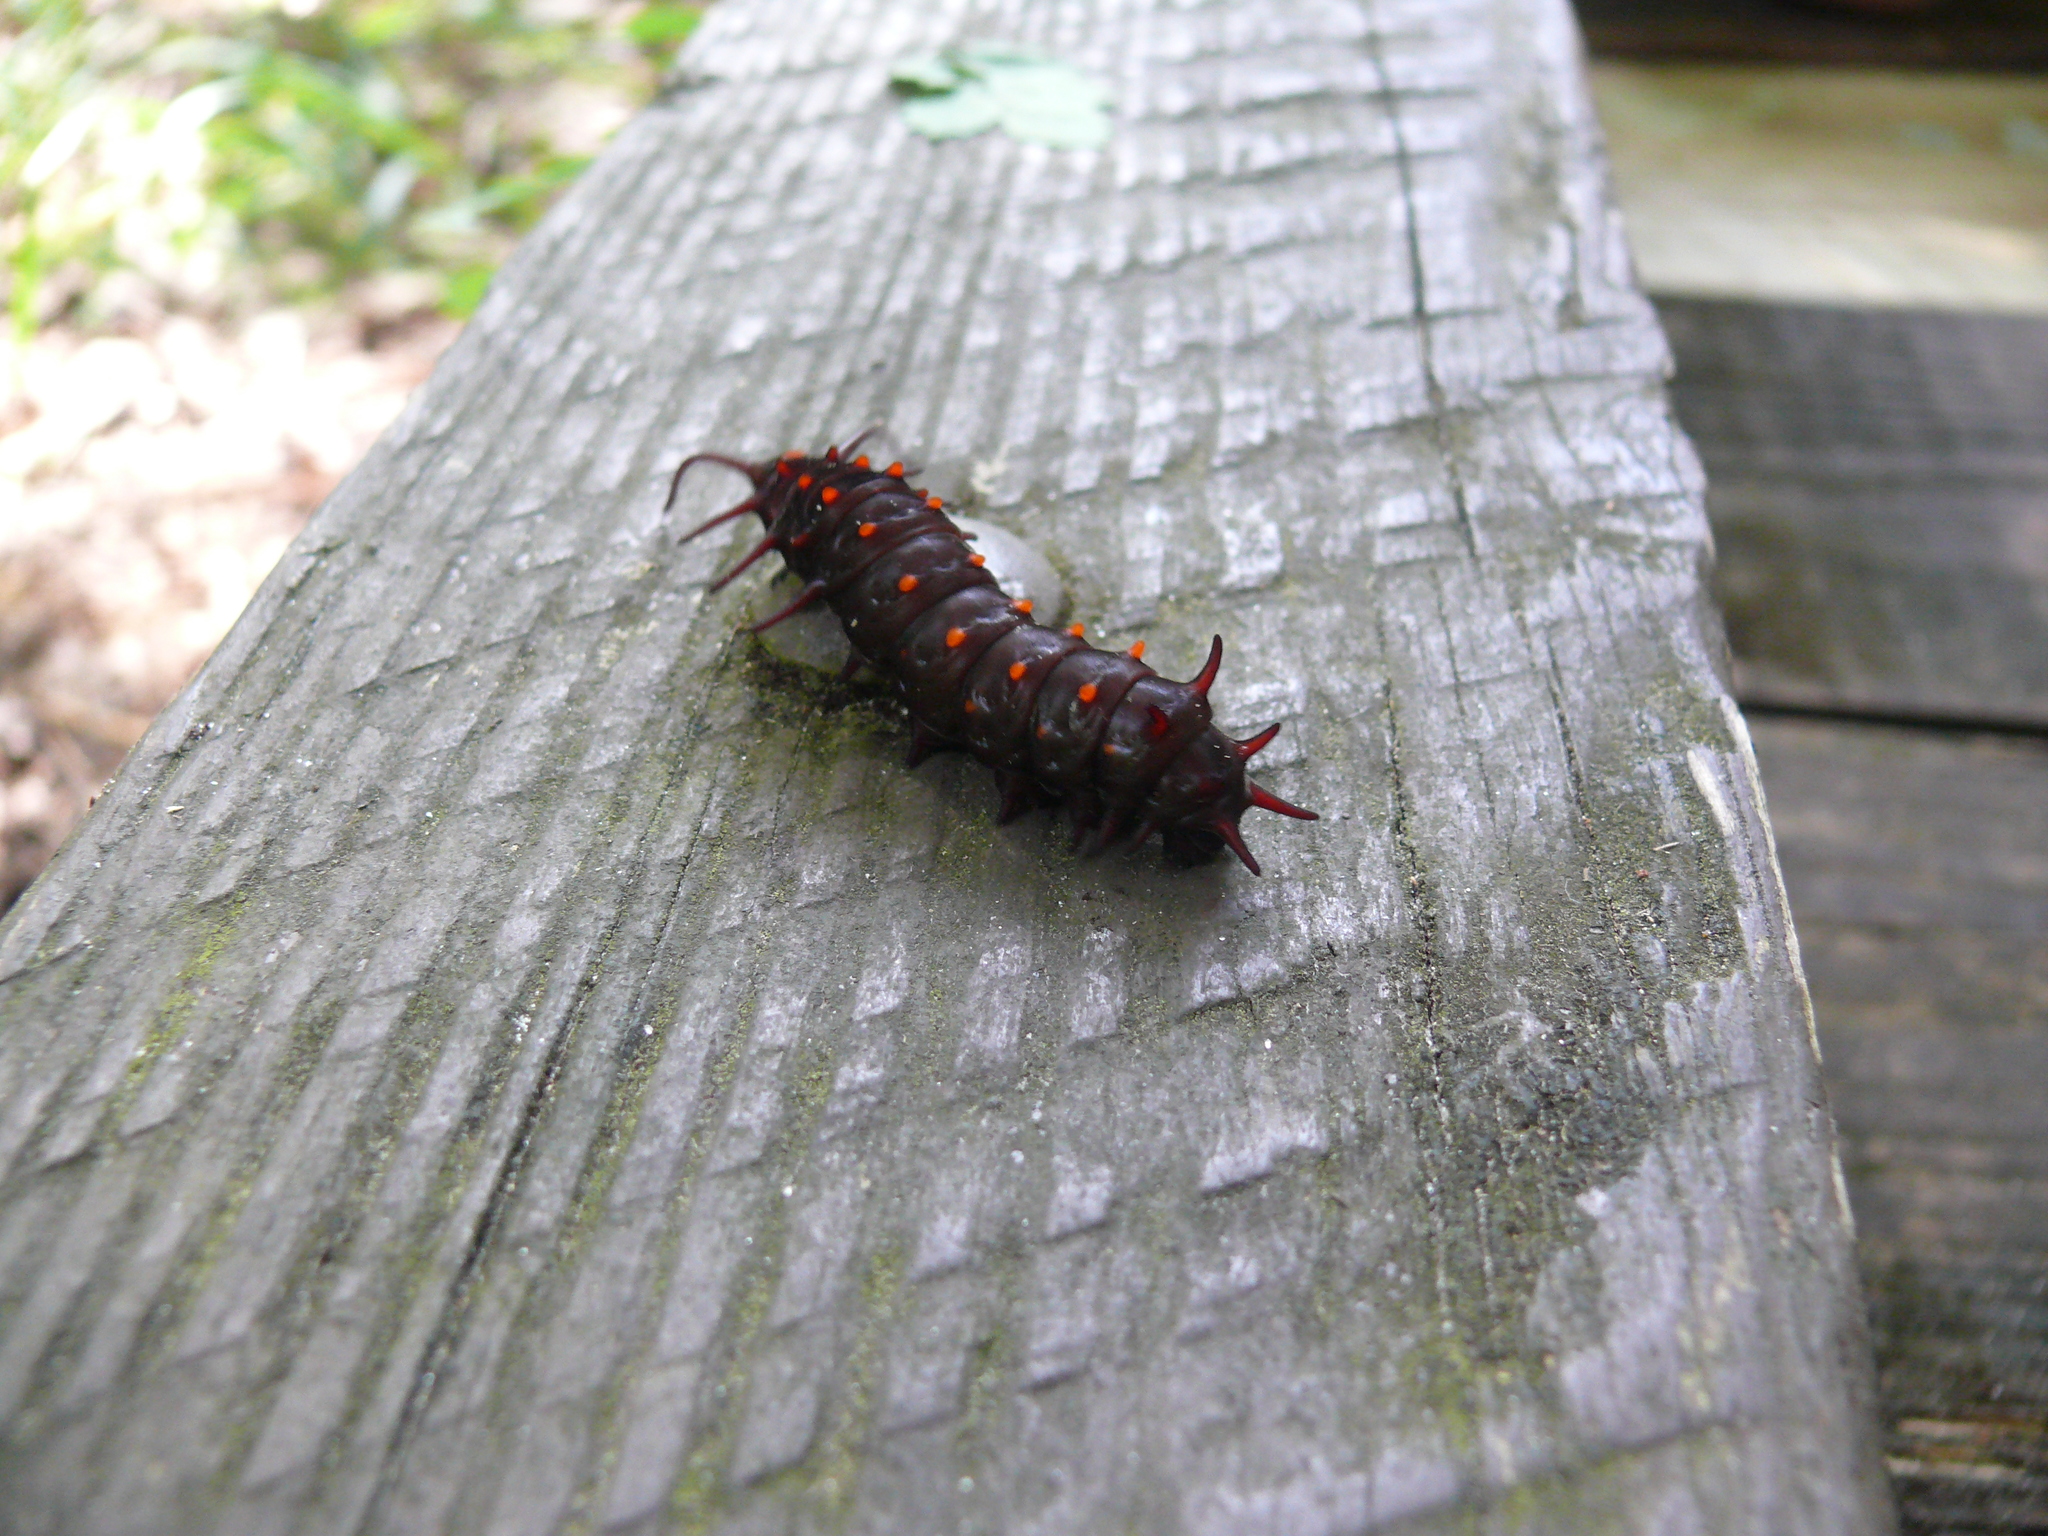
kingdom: Animalia
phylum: Arthropoda
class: Insecta
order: Lepidoptera
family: Papilionidae
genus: Battus
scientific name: Battus philenor
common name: Pipevine swallowtail
